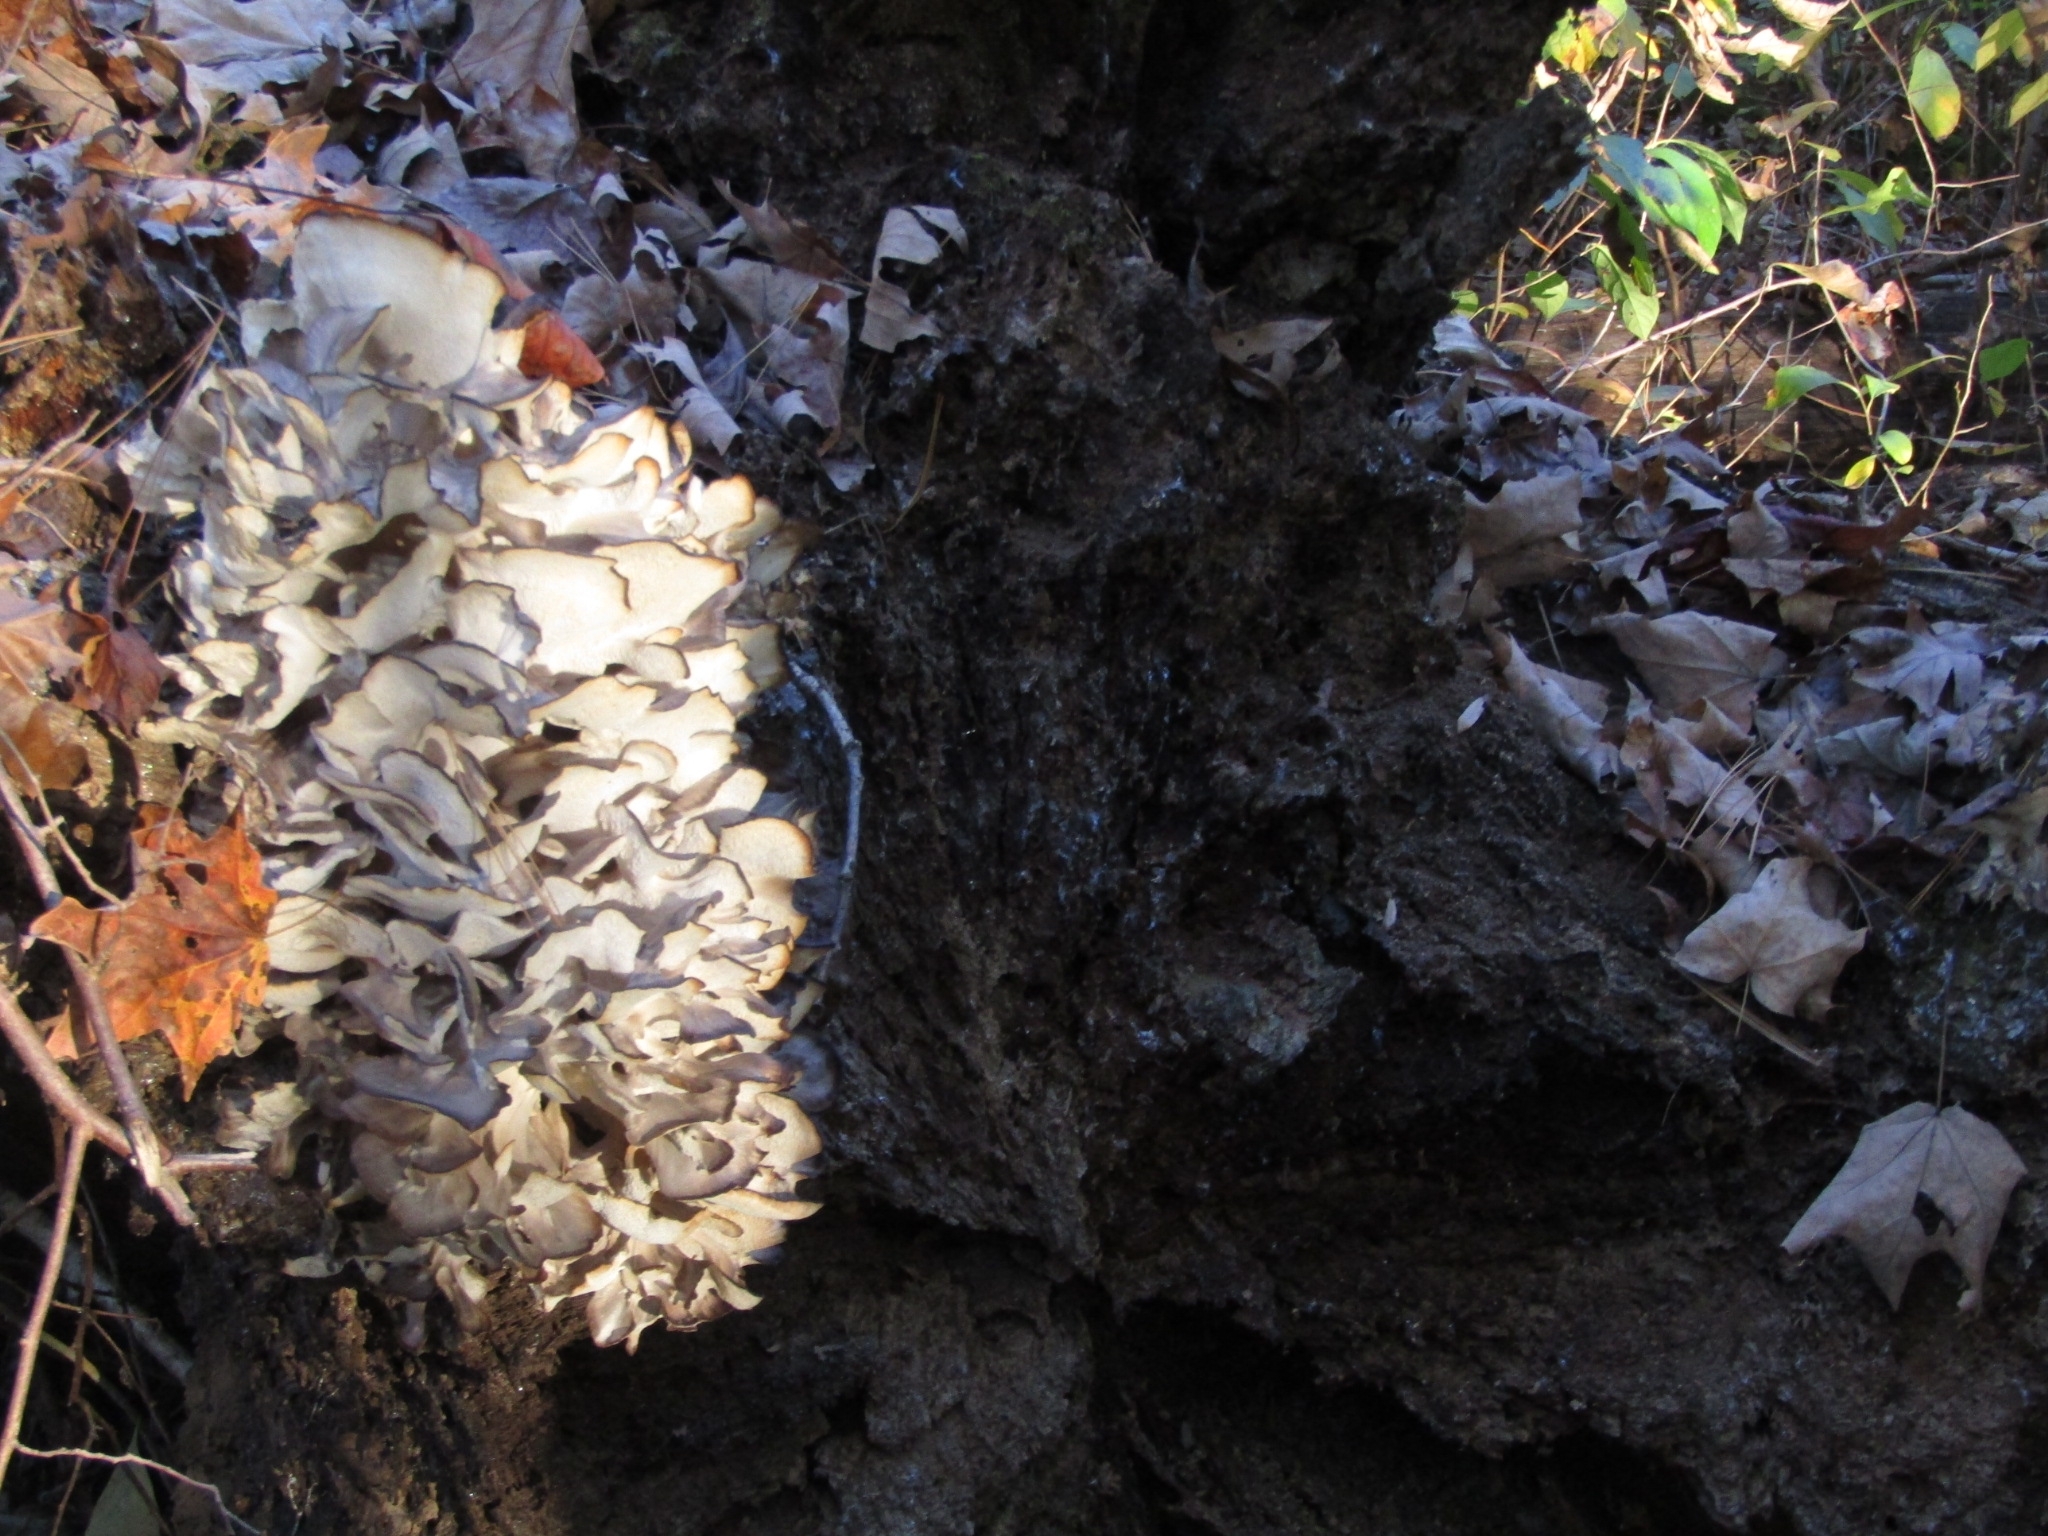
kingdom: Fungi
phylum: Basidiomycota
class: Agaricomycetes
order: Polyporales
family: Grifolaceae
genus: Grifola
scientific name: Grifola frondosa
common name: Hen of the woods
